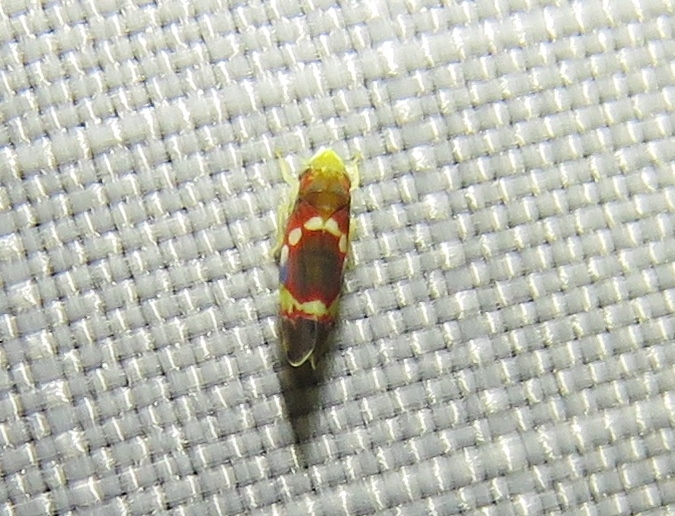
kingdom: Animalia
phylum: Arthropoda
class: Insecta
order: Hemiptera
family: Cicadellidae
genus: Erythroneura
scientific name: Erythroneura vitis
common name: Grapevine leafhopper
